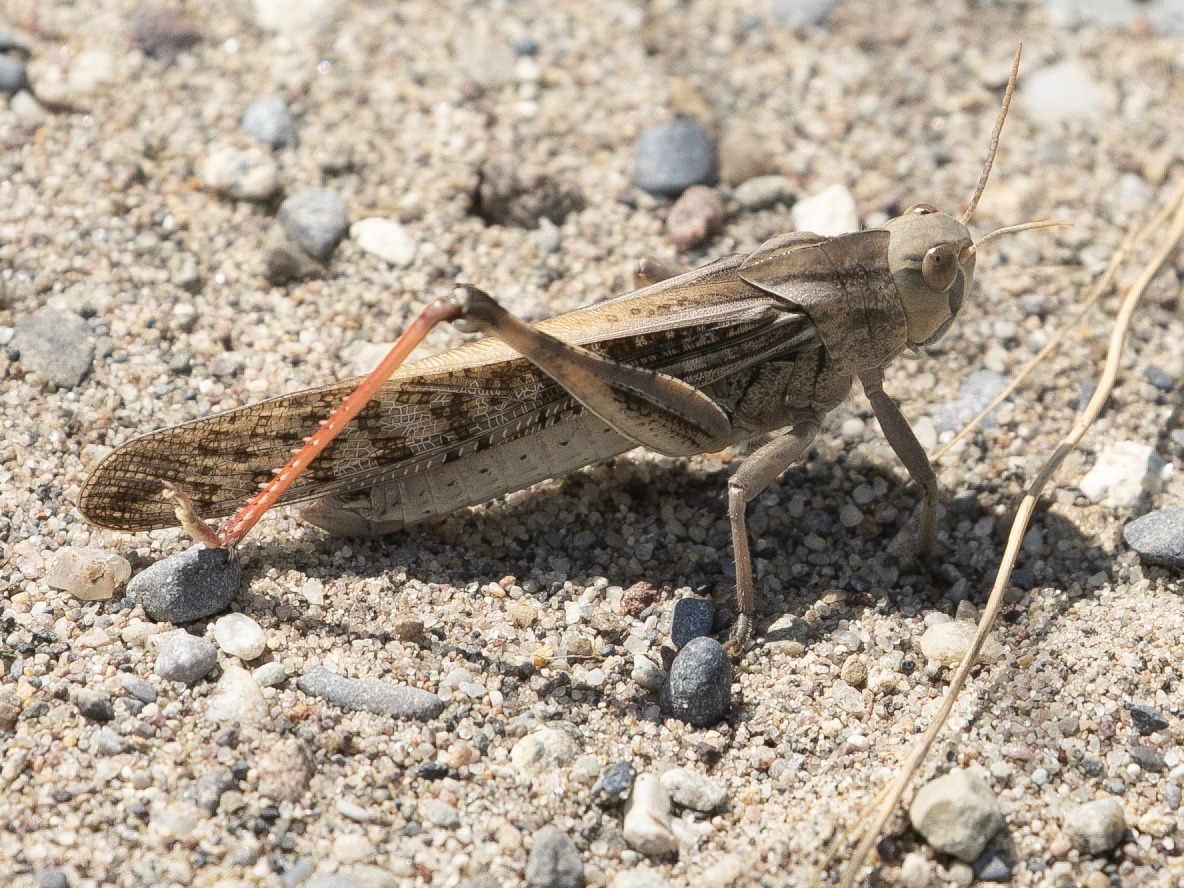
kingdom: Animalia
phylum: Arthropoda
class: Insecta
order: Orthoptera
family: Acrididae
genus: Locusta
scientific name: Locusta migratoria
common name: Migratory locust
